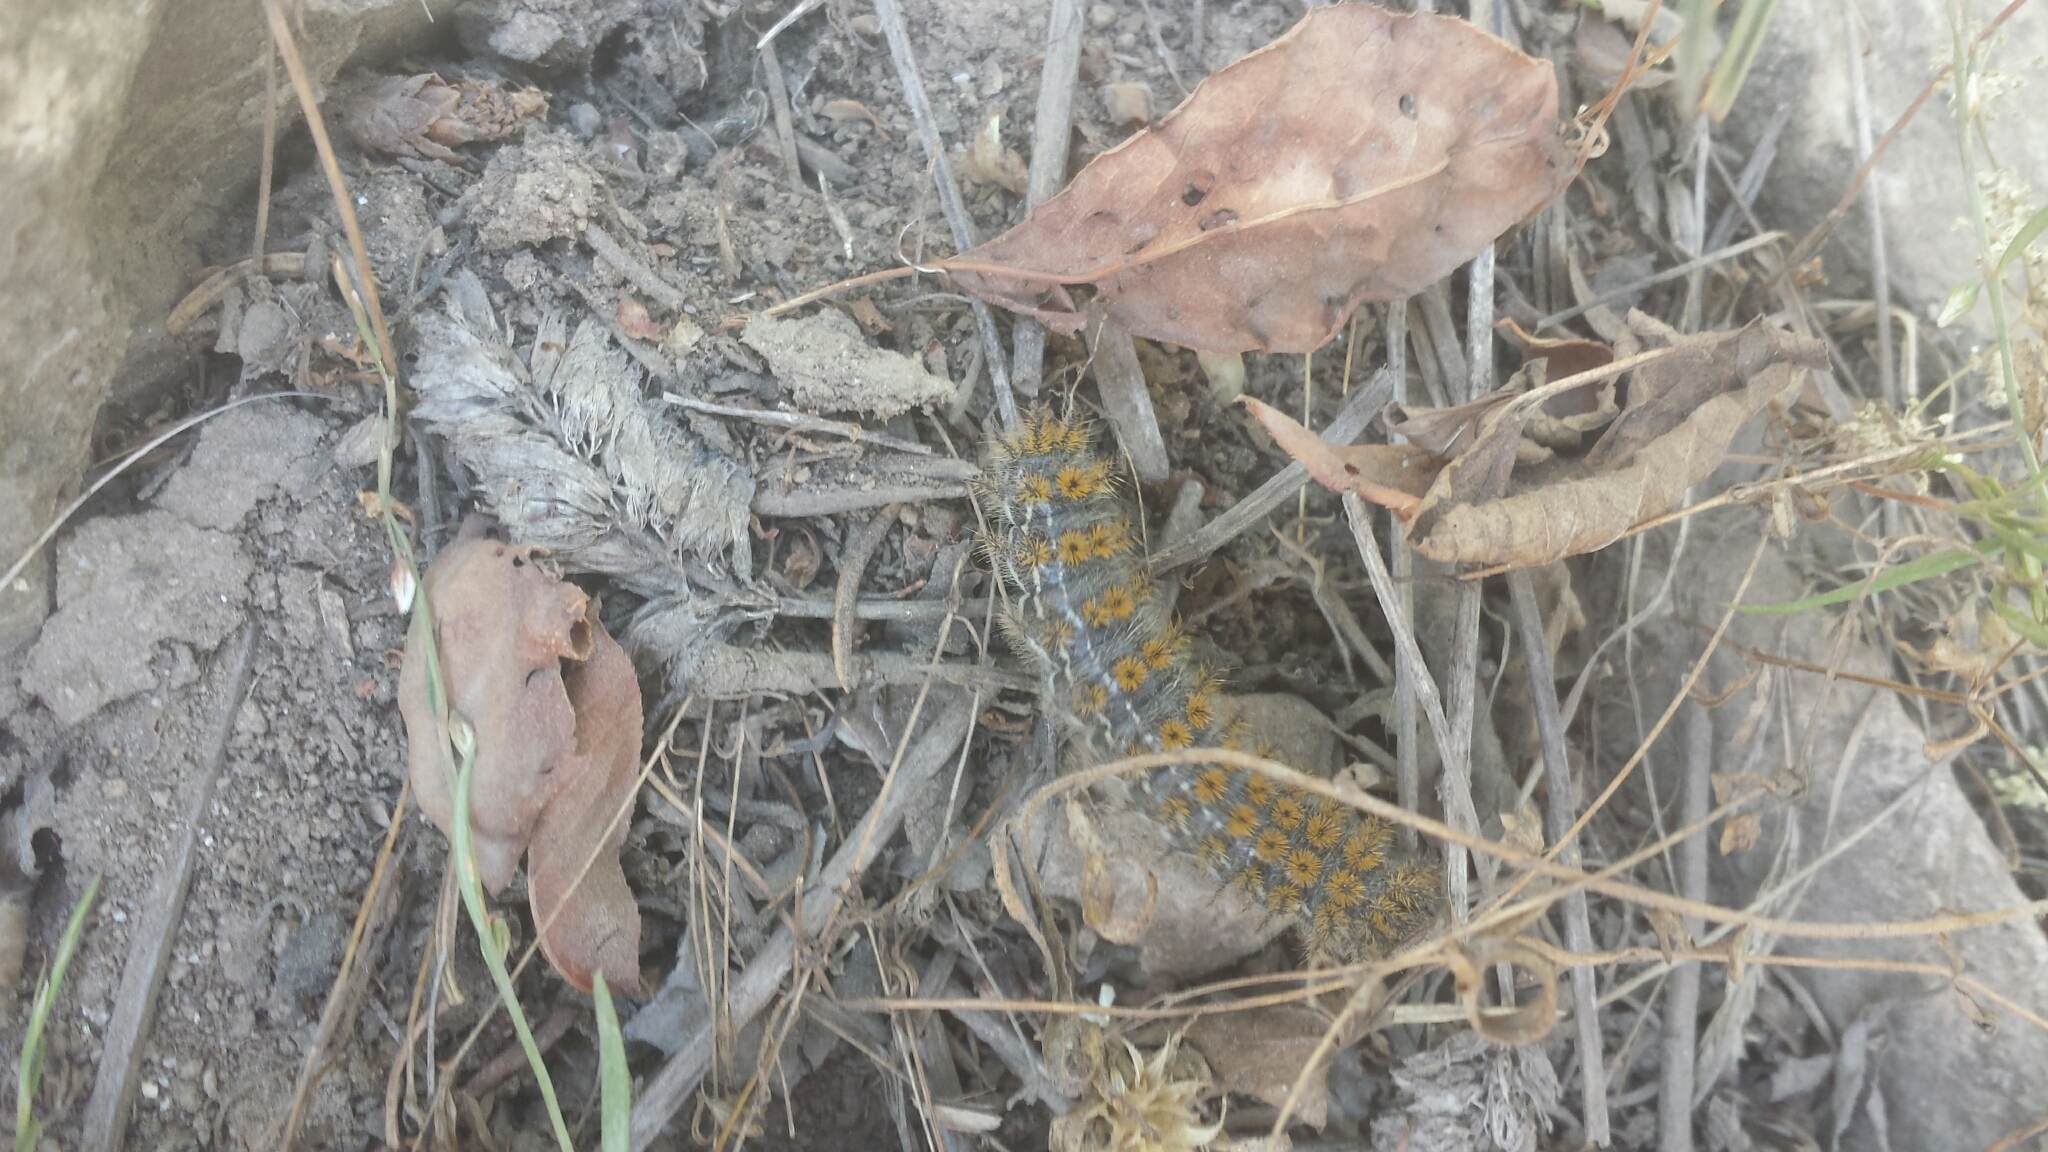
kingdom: Animalia
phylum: Arthropoda
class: Insecta
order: Lepidoptera
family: Saturniidae
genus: Hemileuca
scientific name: Hemileuca hera
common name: Hera sheepmoth
